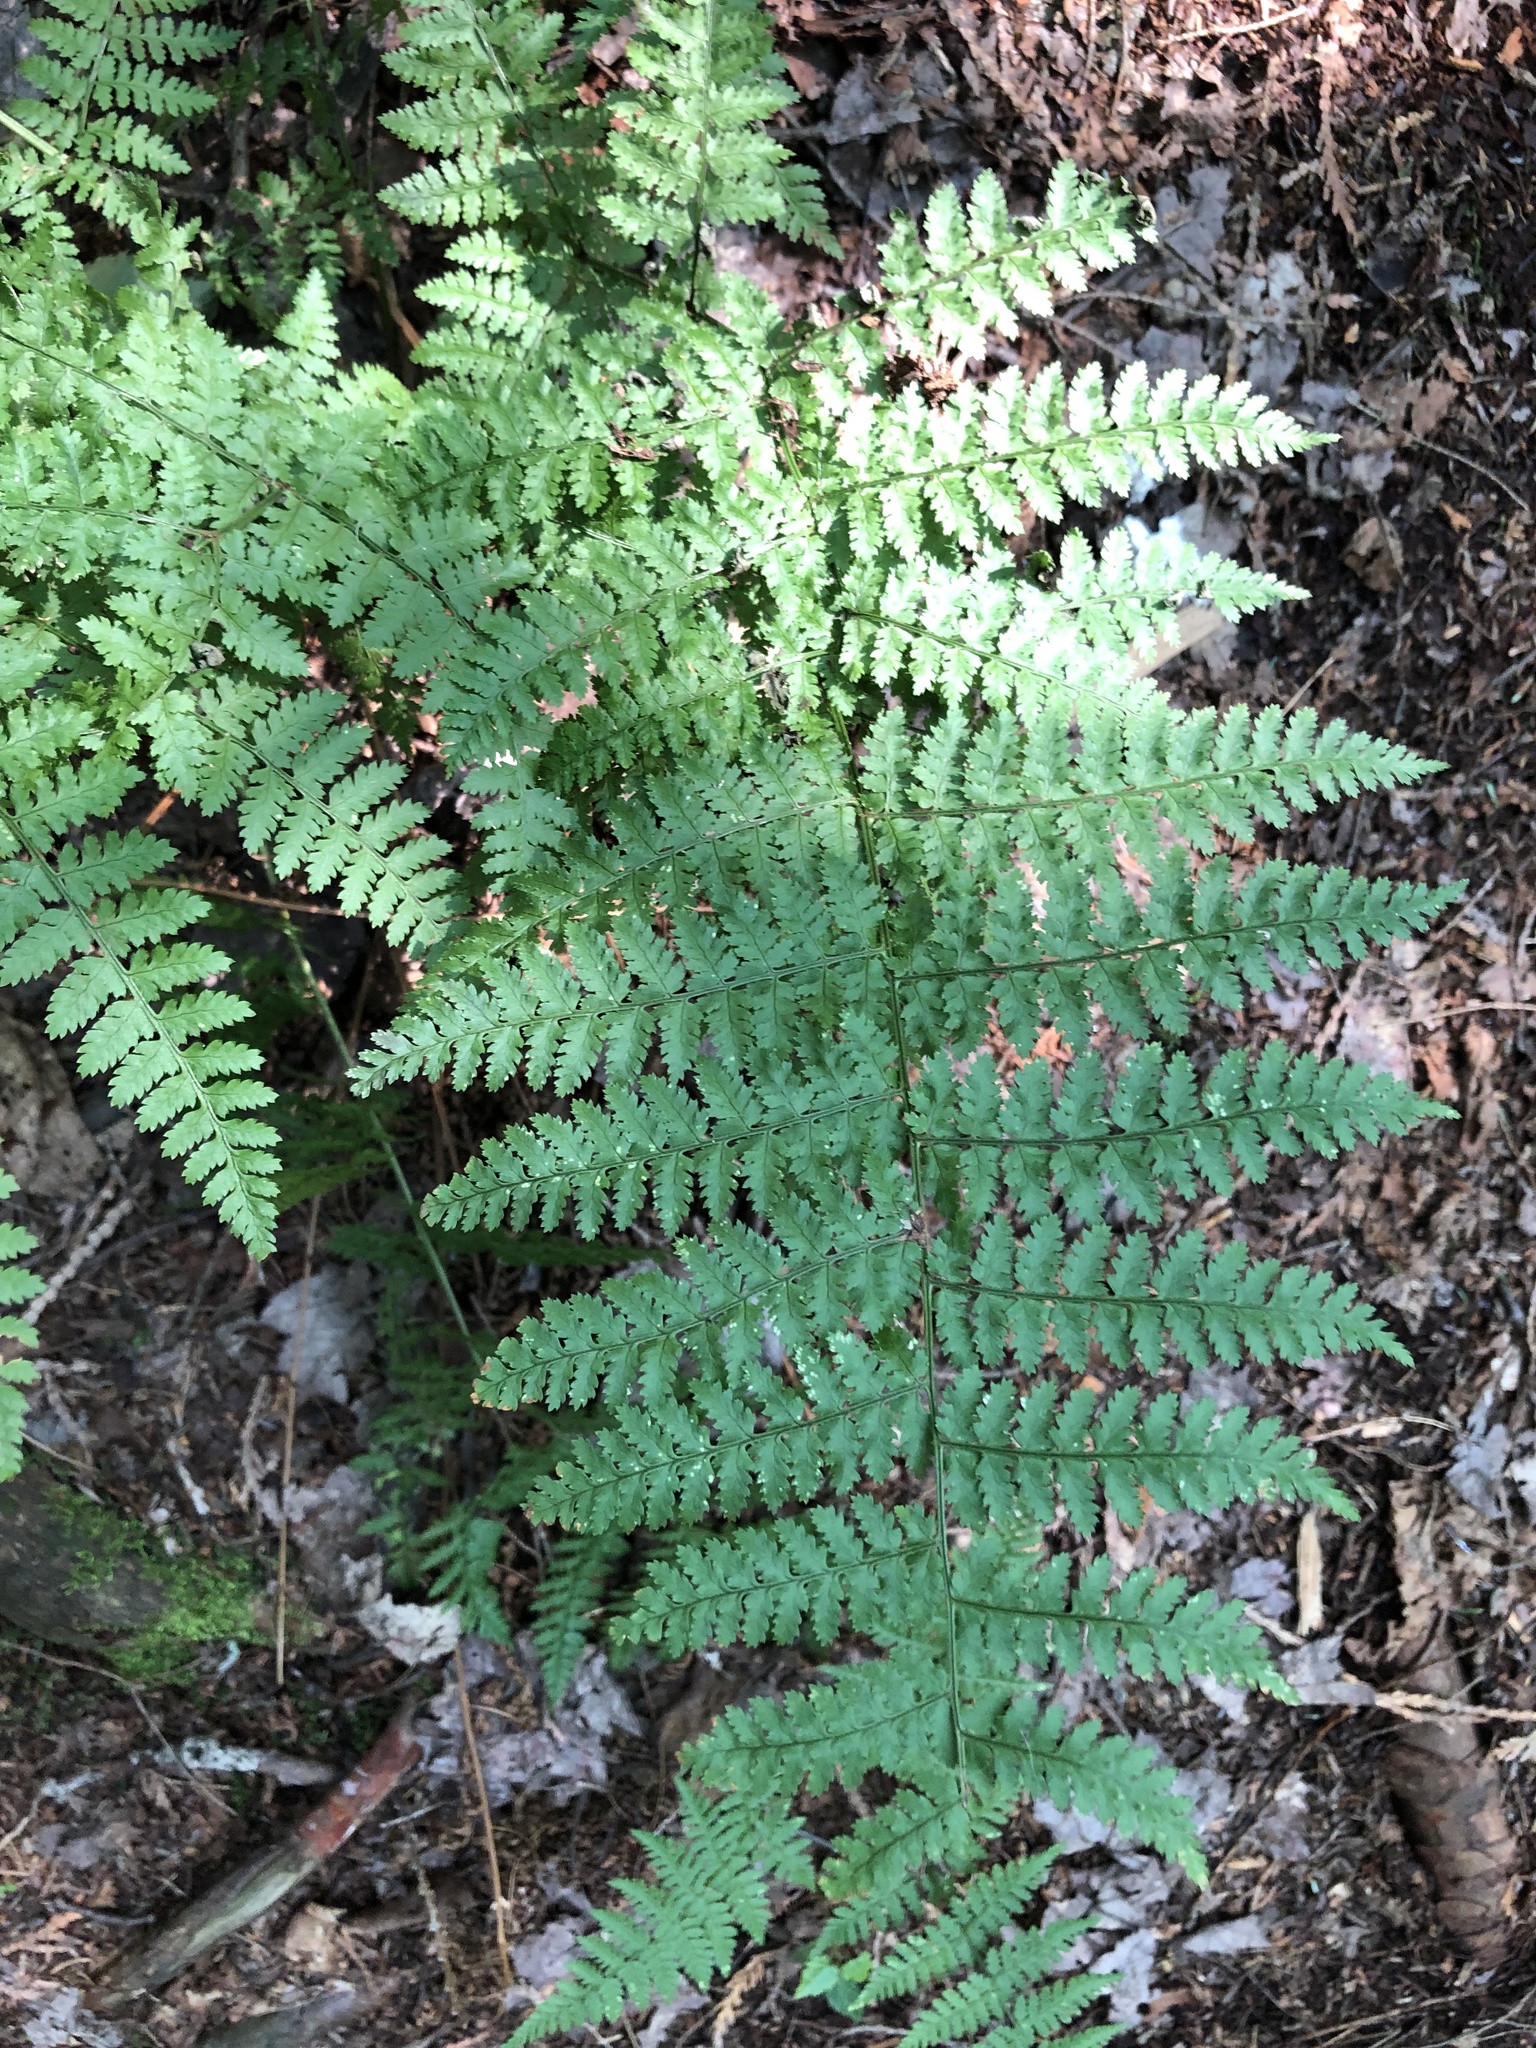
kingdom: Plantae
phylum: Tracheophyta
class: Polypodiopsida
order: Polypodiales
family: Dryopteridaceae
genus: Dryopteris
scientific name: Dryopteris intermedia
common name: Evergreen wood fern
